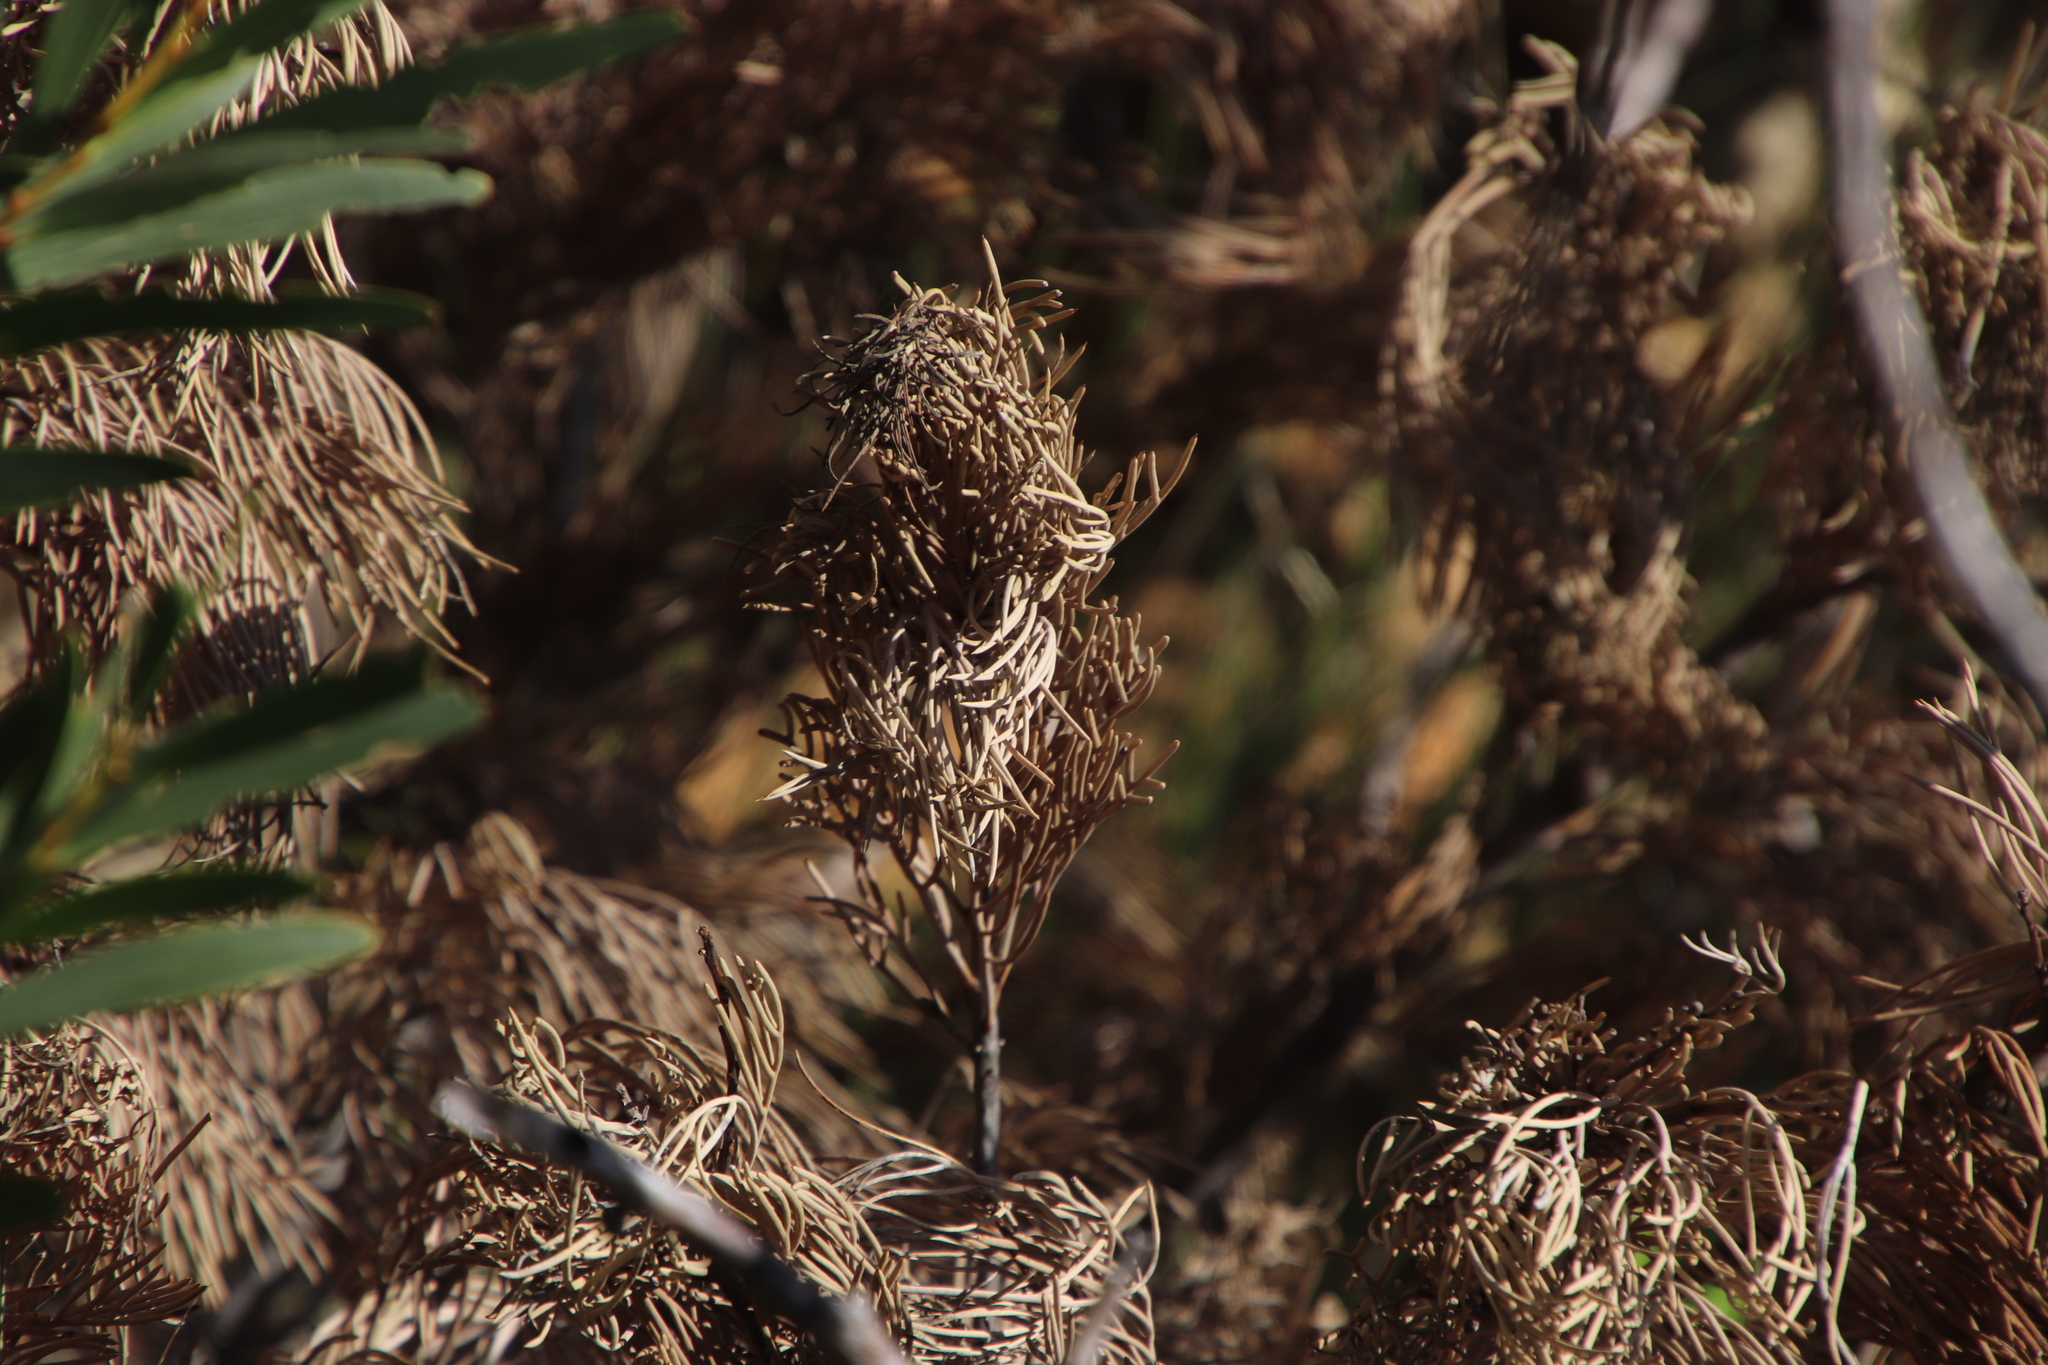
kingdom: Plantae
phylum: Tracheophyta
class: Magnoliopsida
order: Proteales
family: Proteaceae
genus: Hakea
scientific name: Hakea drupacea
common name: Sweet hakea
